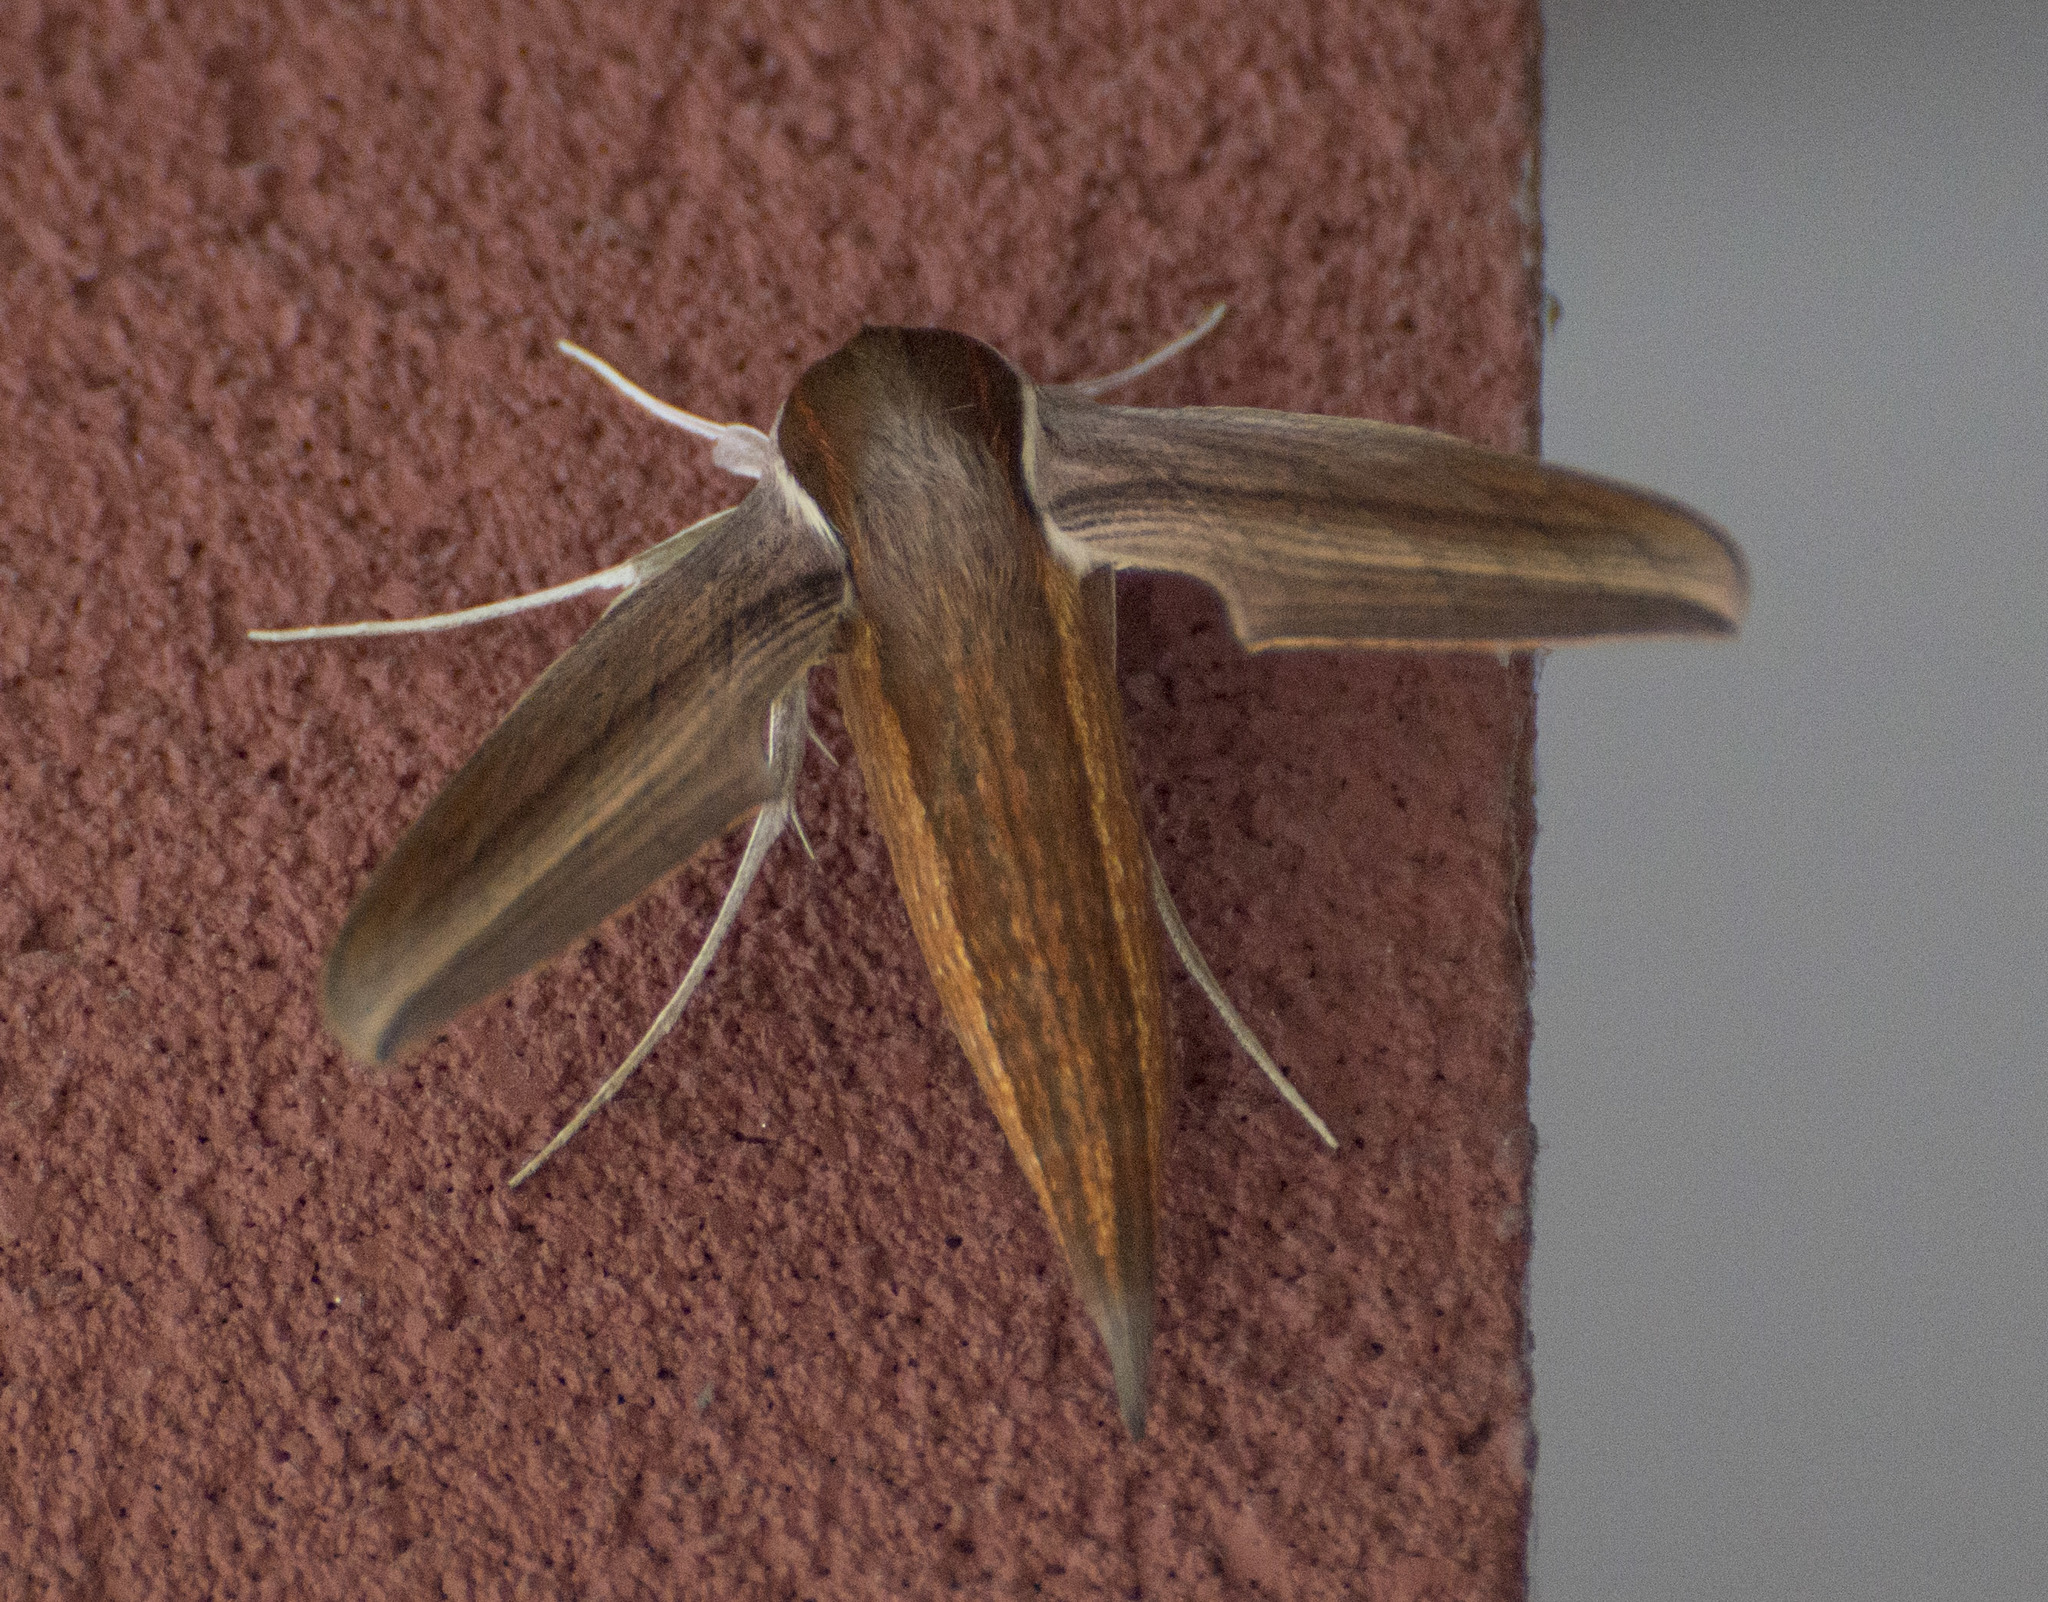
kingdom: Animalia
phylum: Arthropoda
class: Insecta
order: Lepidoptera
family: Sphingidae
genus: Xylophanes
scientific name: Xylophanes tersa
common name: Tersa sphinx
